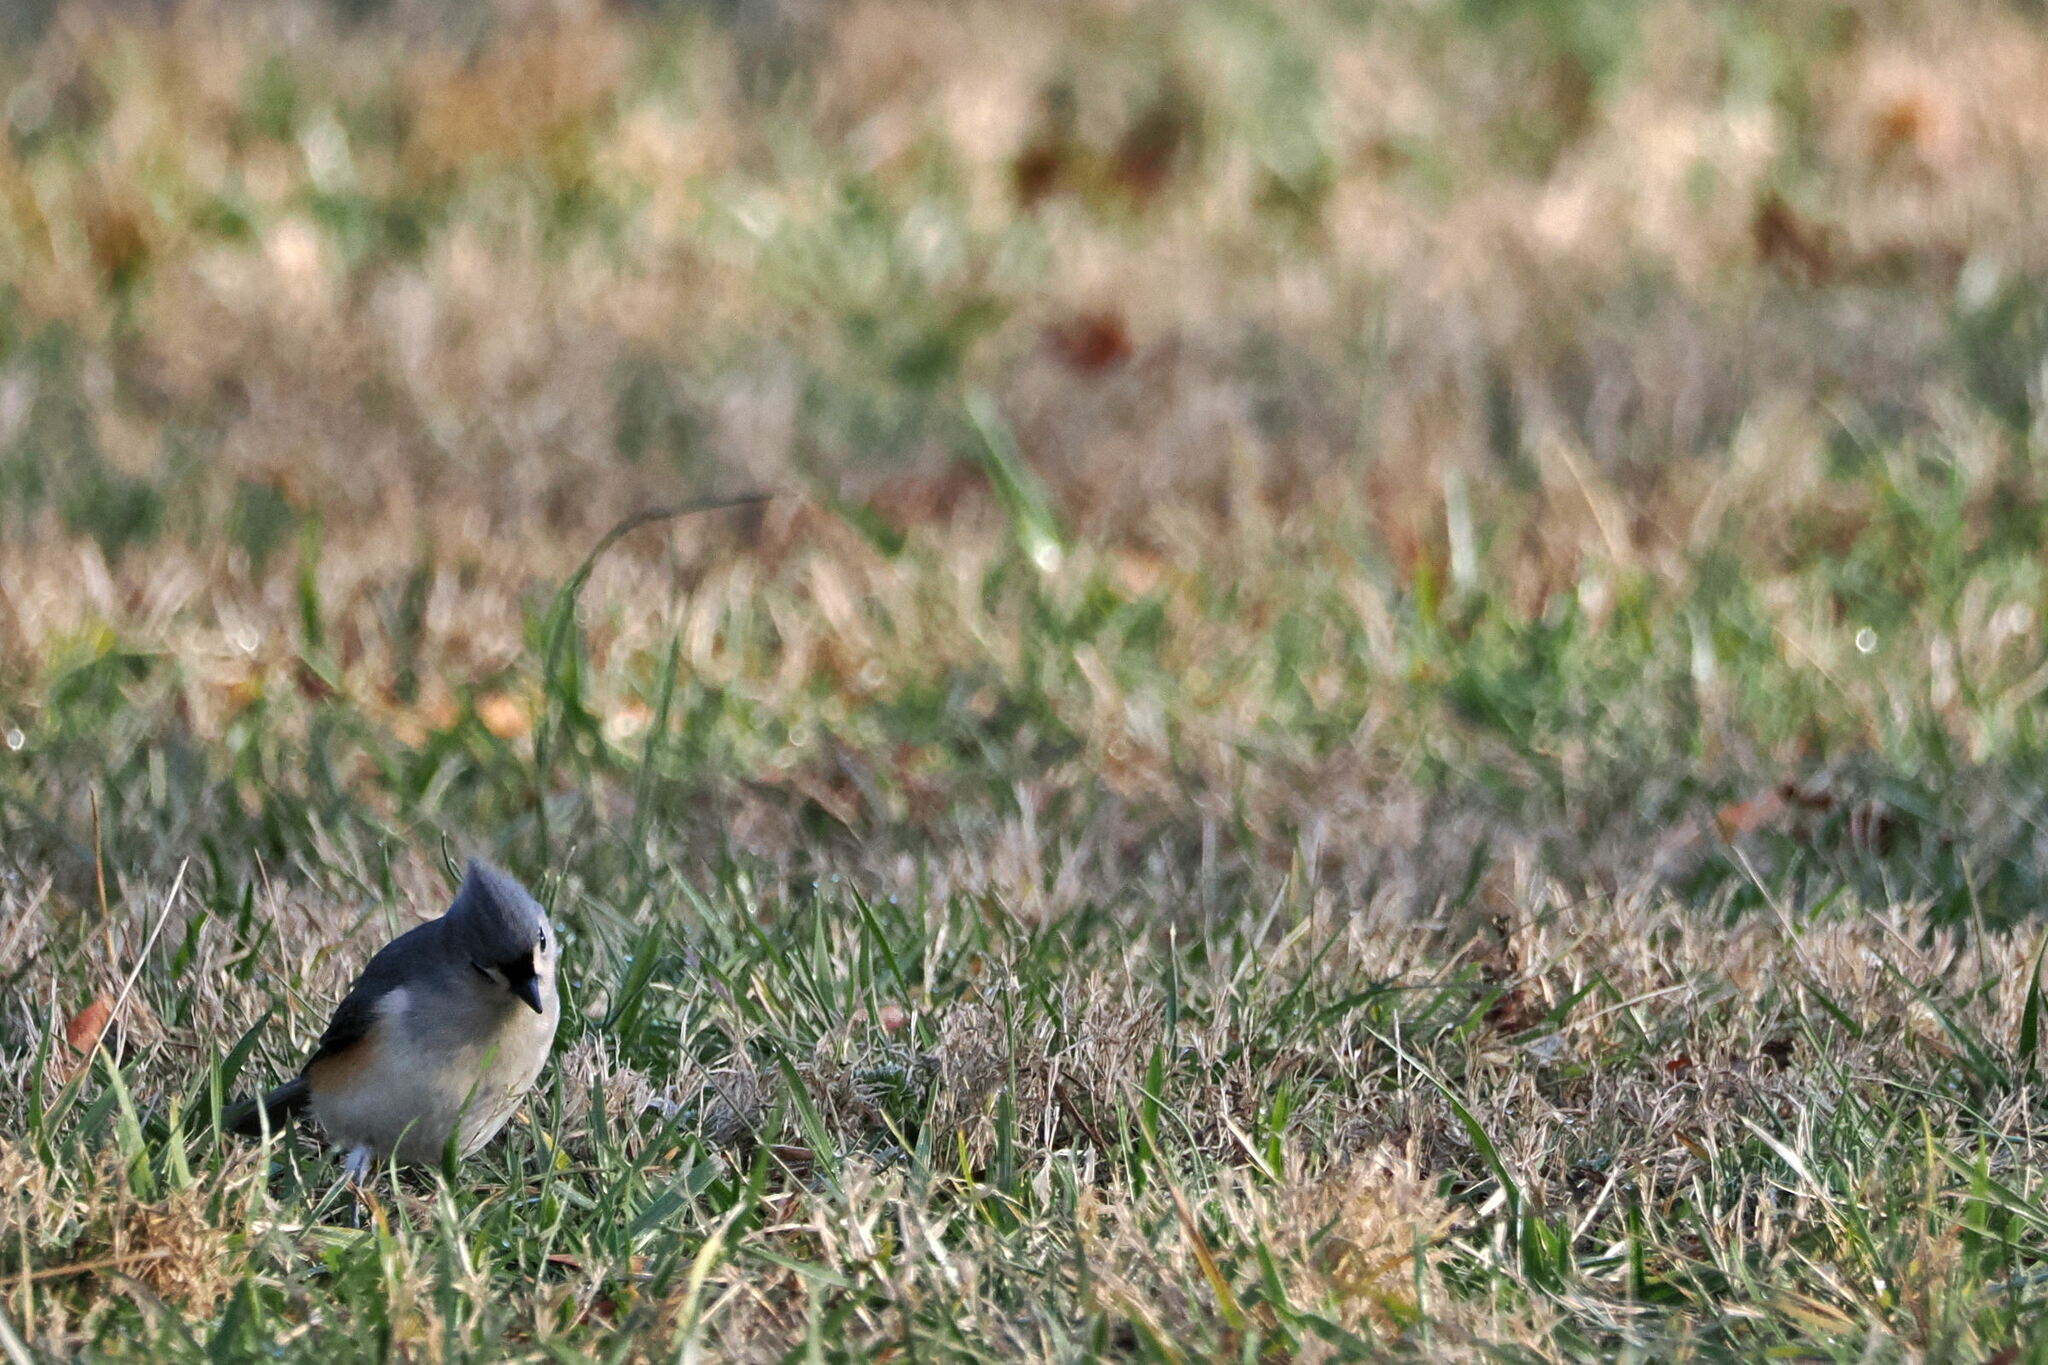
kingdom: Animalia
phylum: Chordata
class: Aves
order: Passeriformes
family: Paridae
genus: Baeolophus
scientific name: Baeolophus bicolor
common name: Tufted titmouse
